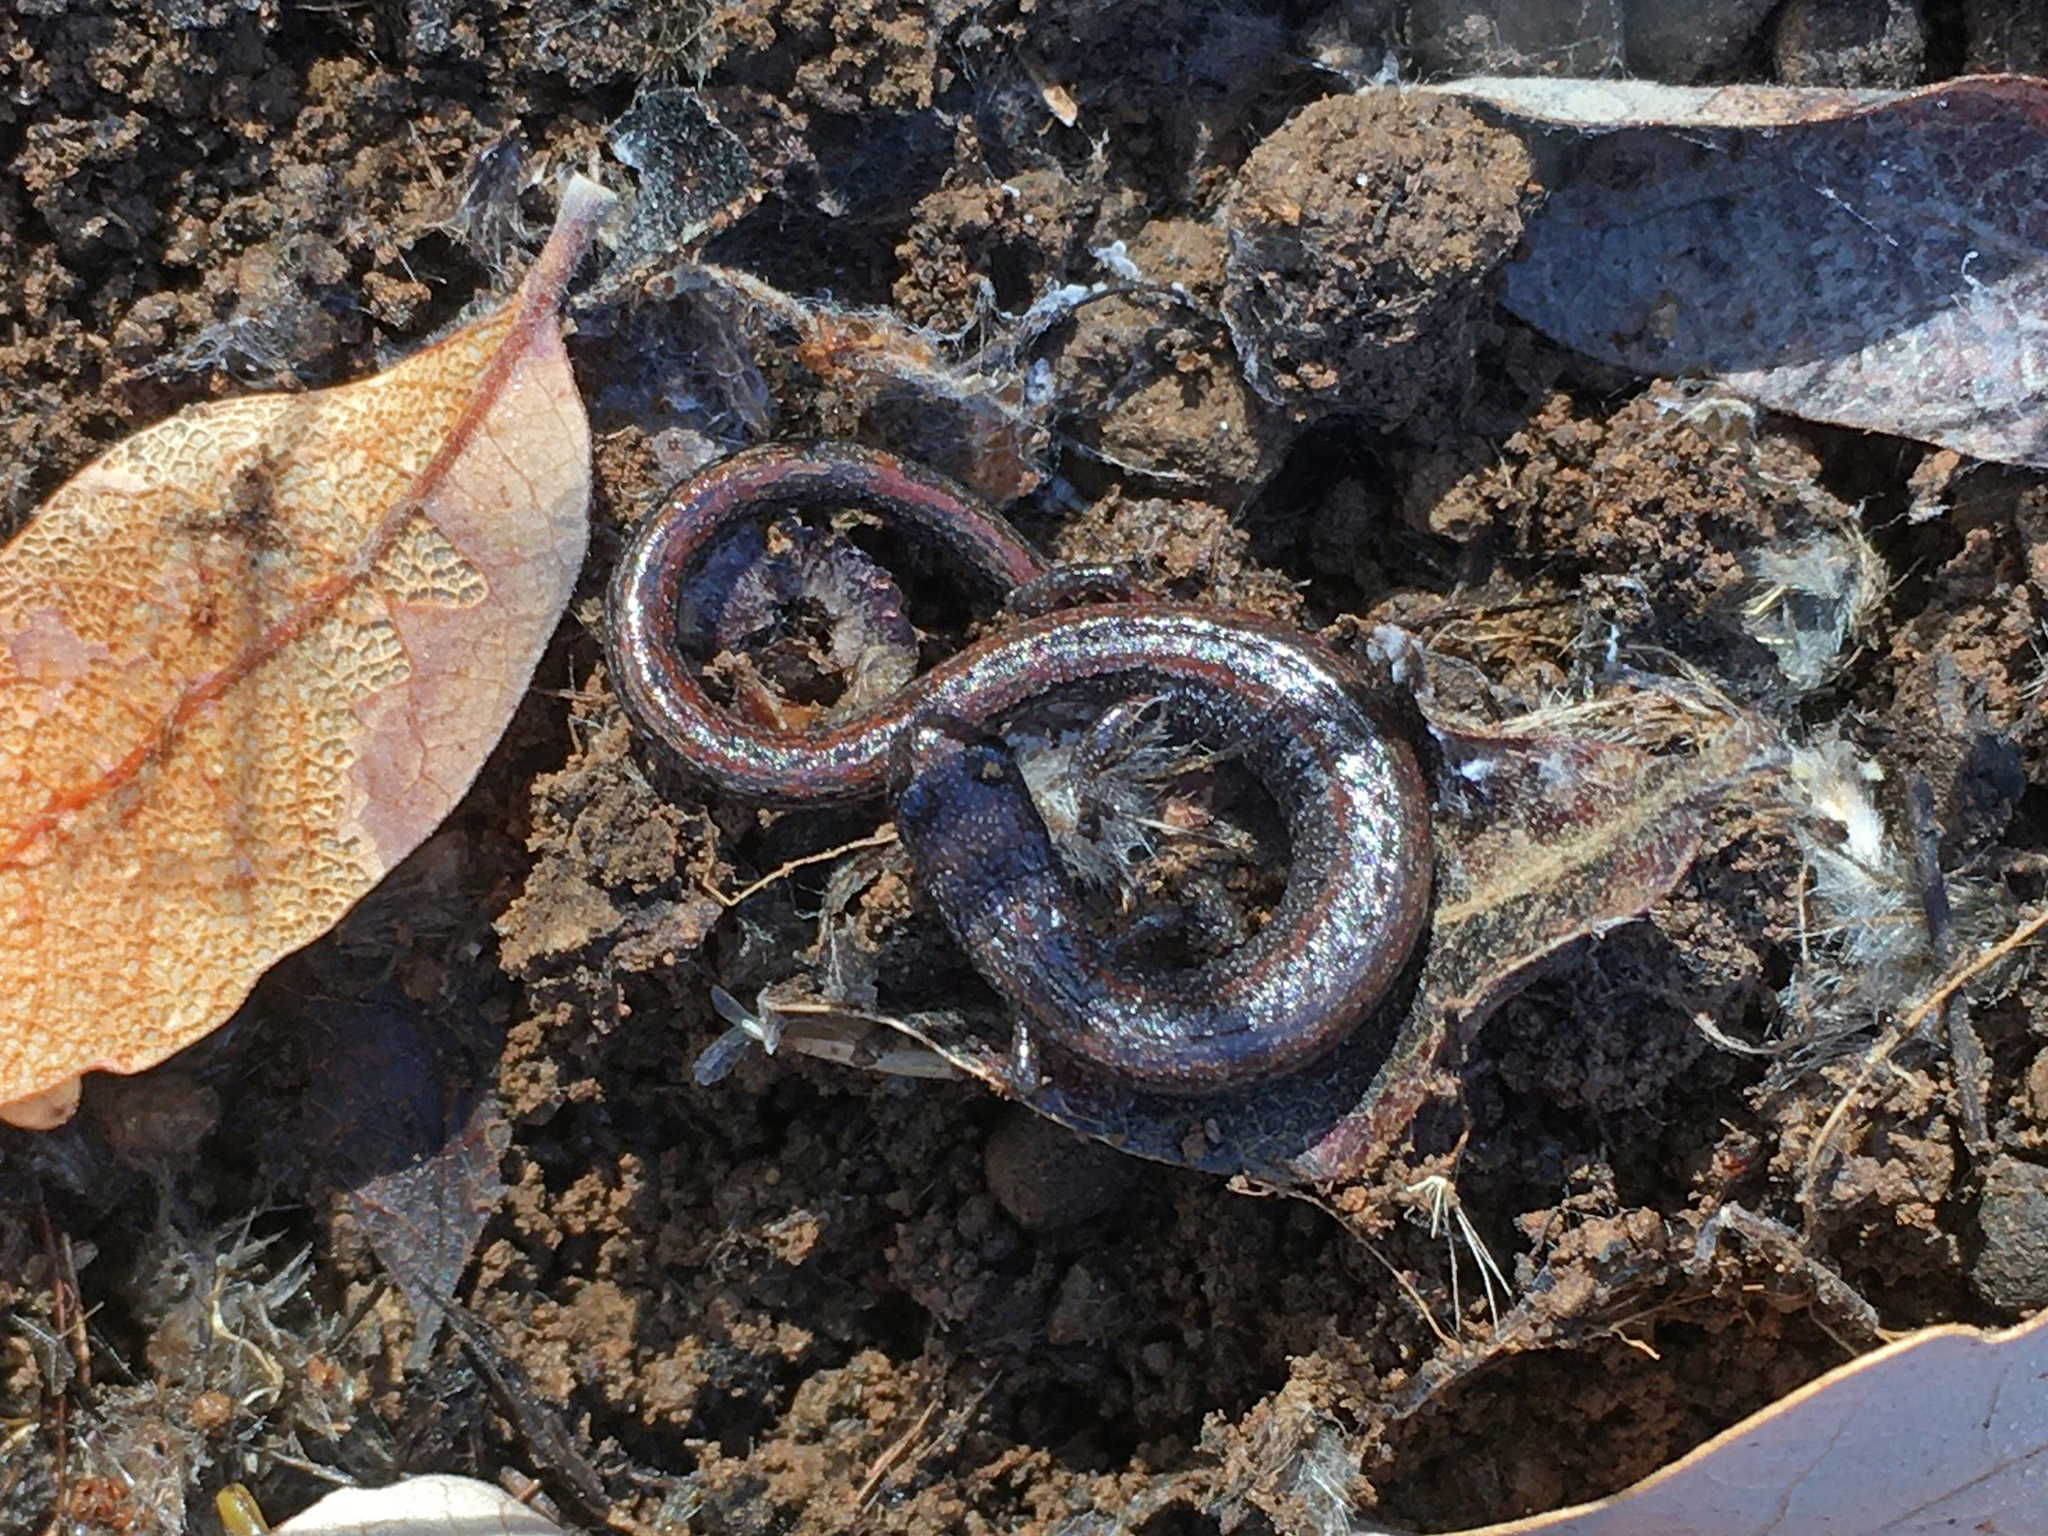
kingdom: Animalia
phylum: Chordata
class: Amphibia
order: Caudata
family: Plethodontidae
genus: Batrachoseps
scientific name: Batrachoseps attenuatus
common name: California slender salamander
